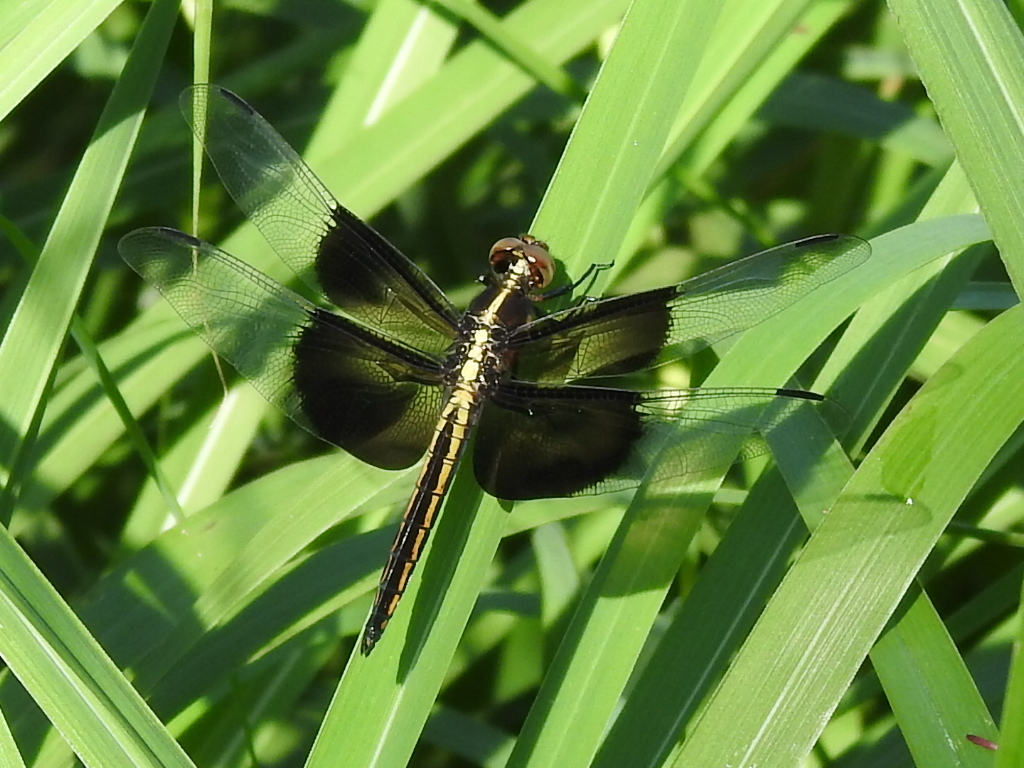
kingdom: Animalia
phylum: Arthropoda
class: Insecta
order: Odonata
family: Libellulidae
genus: Libellula
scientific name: Libellula luctuosa
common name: Widow skimmer
